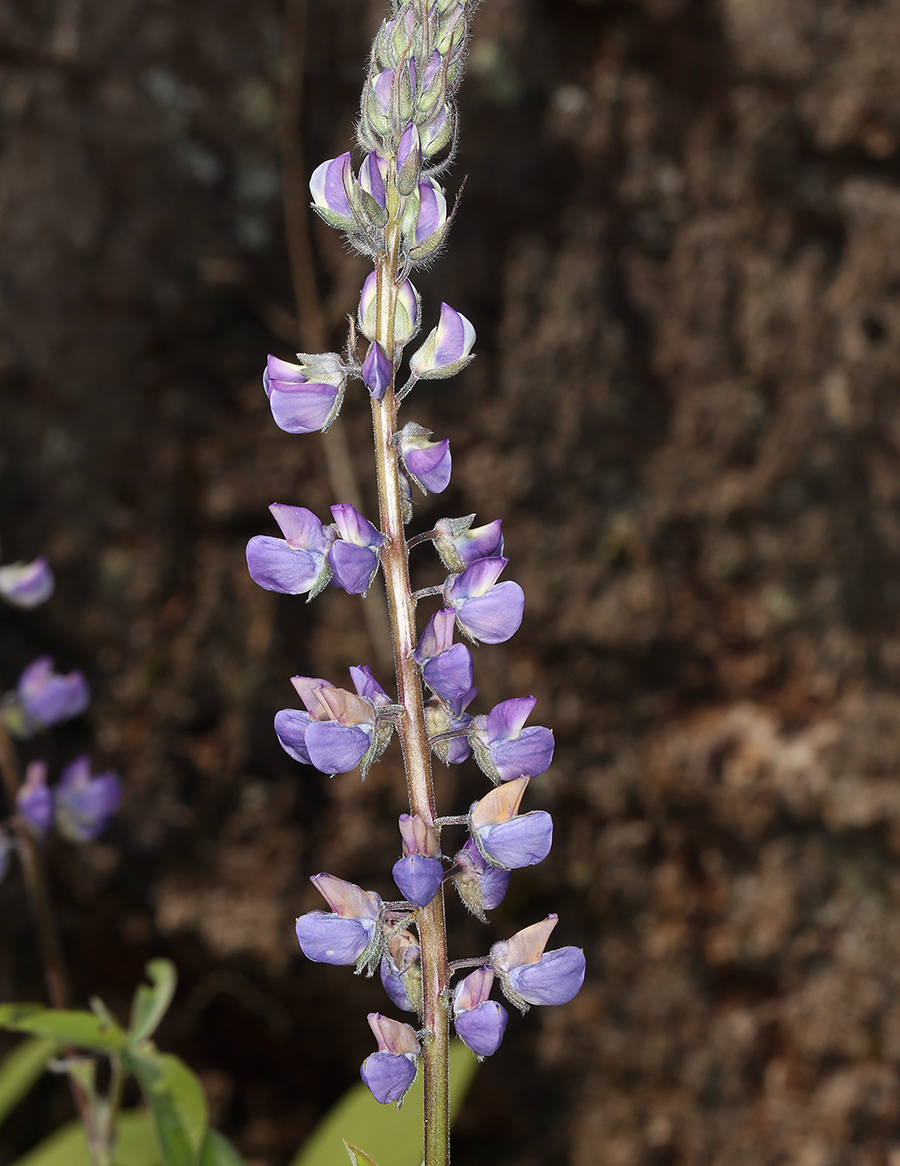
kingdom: Plantae
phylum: Tracheophyta
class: Magnoliopsida
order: Fabales
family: Fabaceae
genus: Lupinus
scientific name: Lupinus latifolius
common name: Broad-leaved lupine
